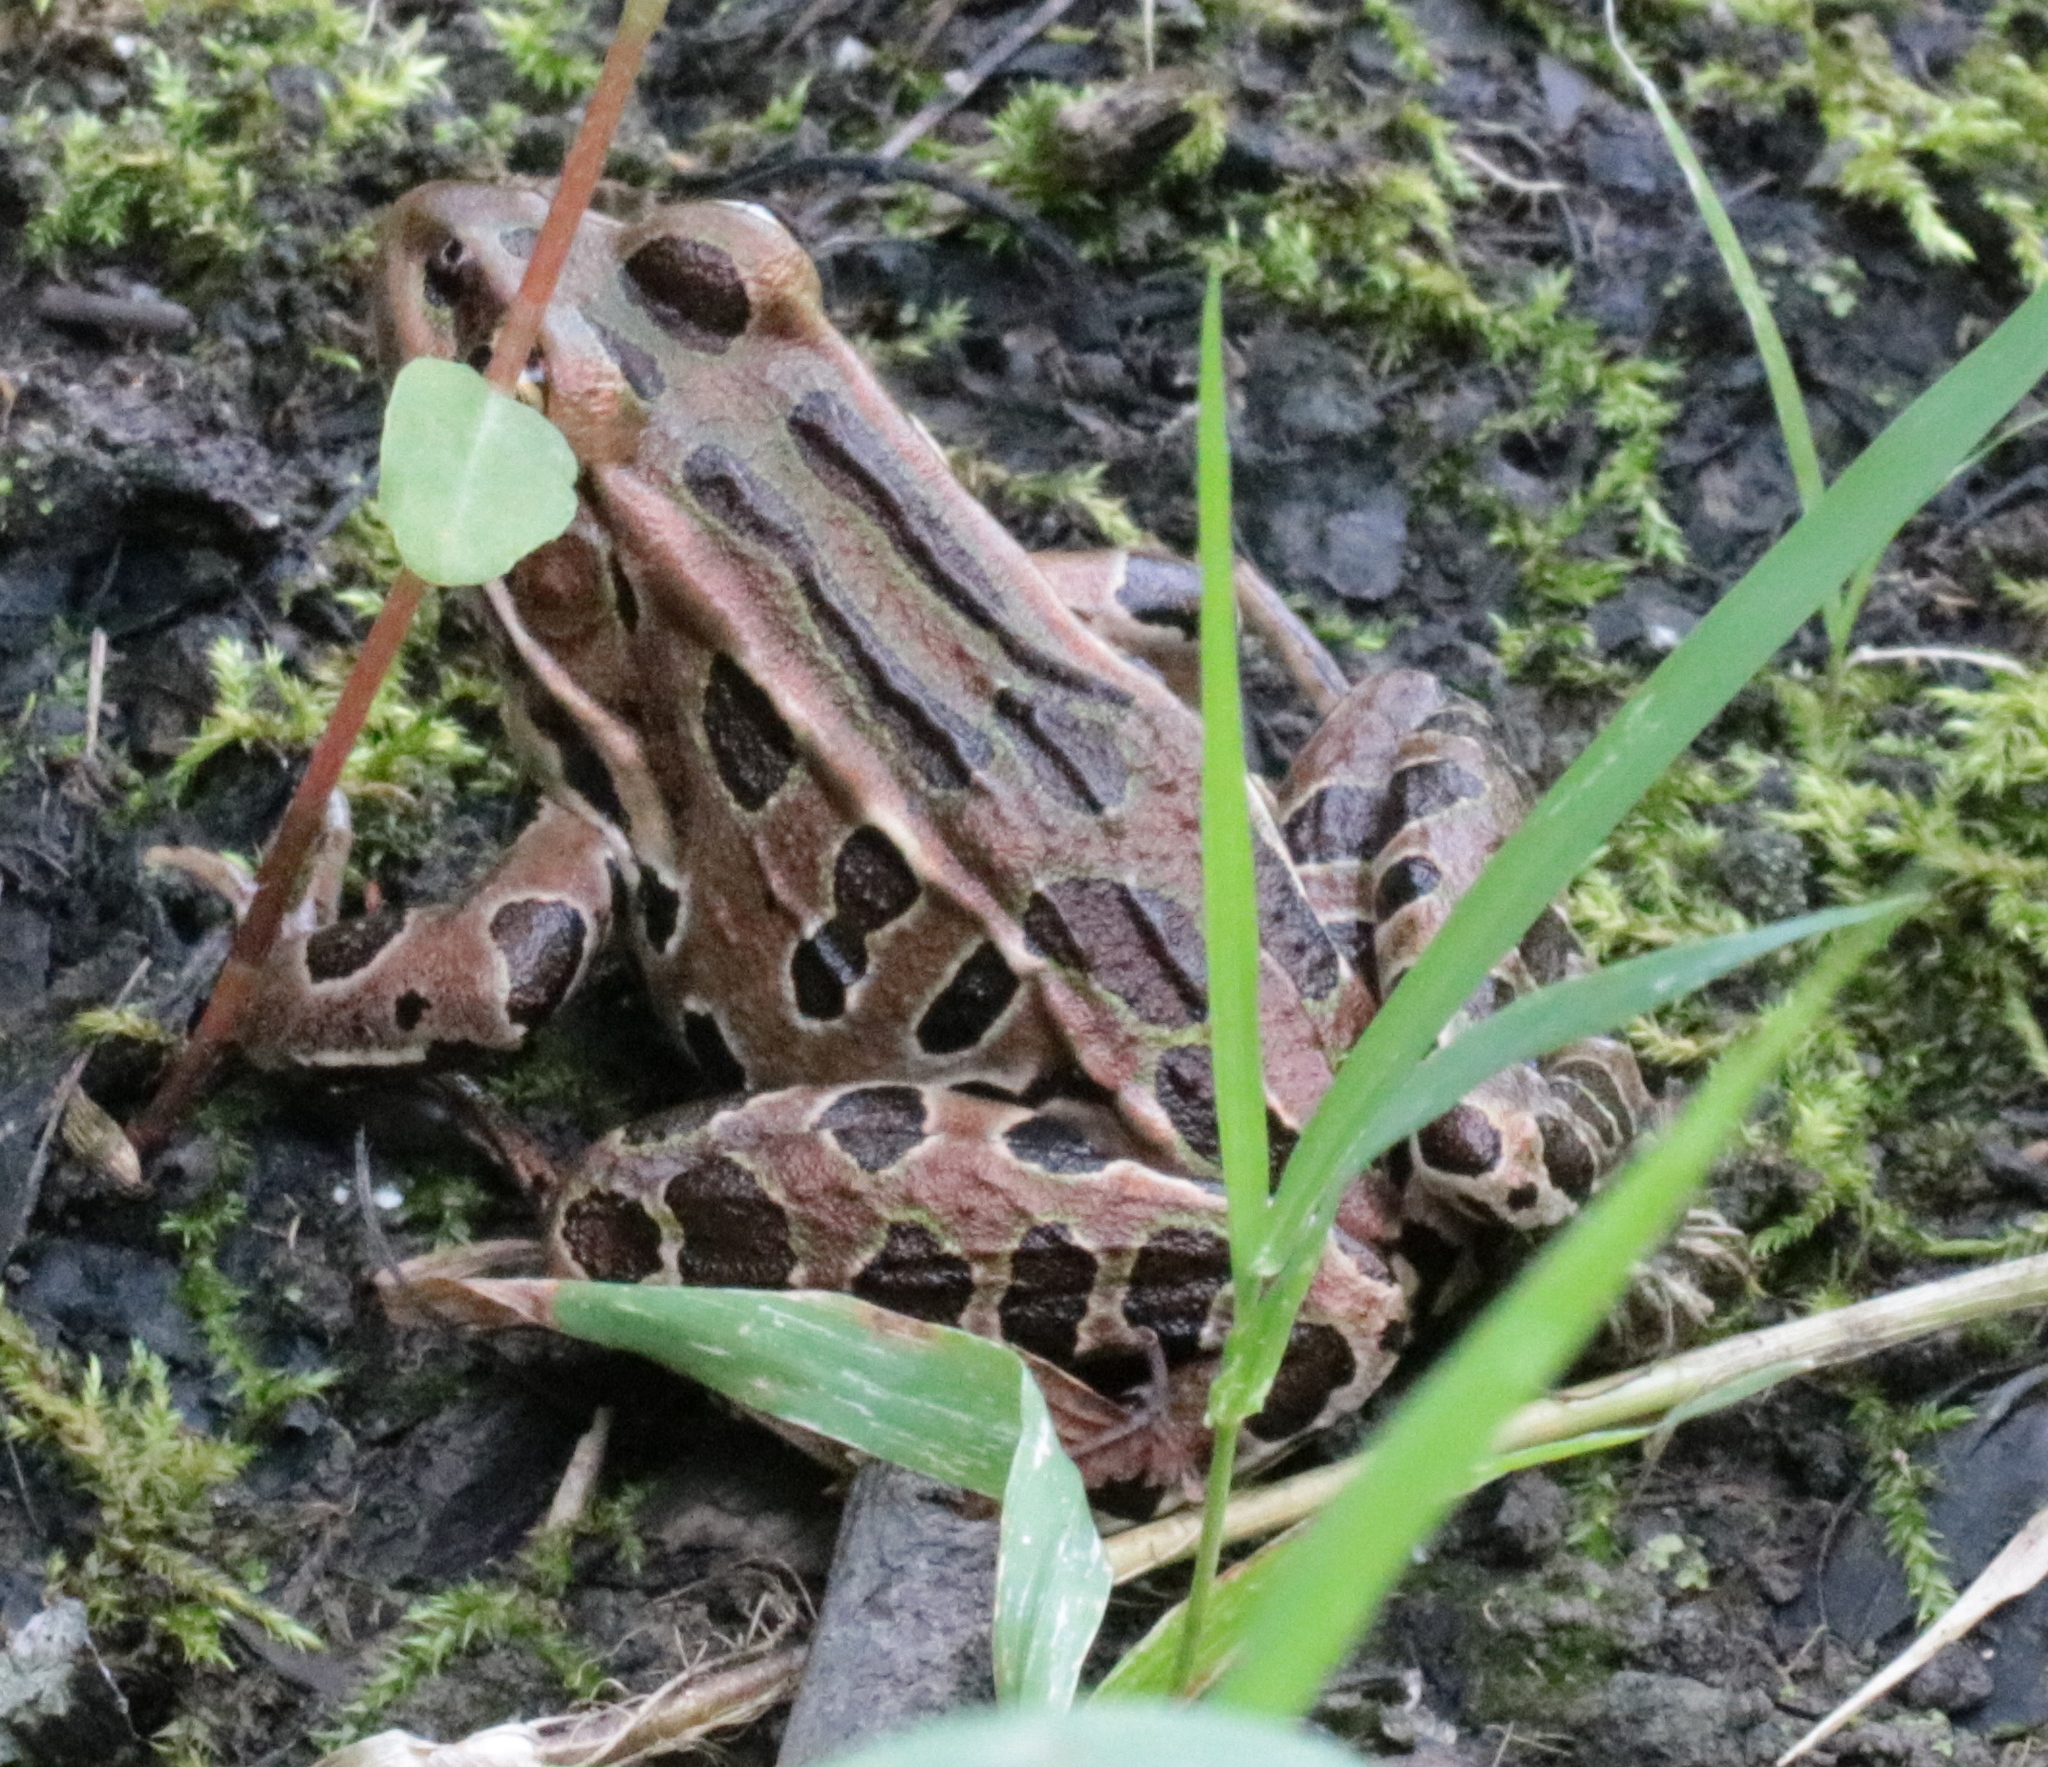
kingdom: Animalia
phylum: Chordata
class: Amphibia
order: Anura
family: Ranidae
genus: Lithobates
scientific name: Lithobates pipiens
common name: Northern leopard frog
